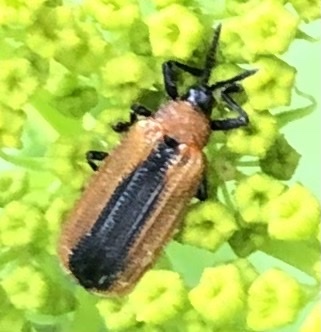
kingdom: Animalia
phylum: Arthropoda
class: Insecta
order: Coleoptera
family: Chrysomelidae
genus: Odontota
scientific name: Odontota dorsalis
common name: Locust leaf-miner beetle
